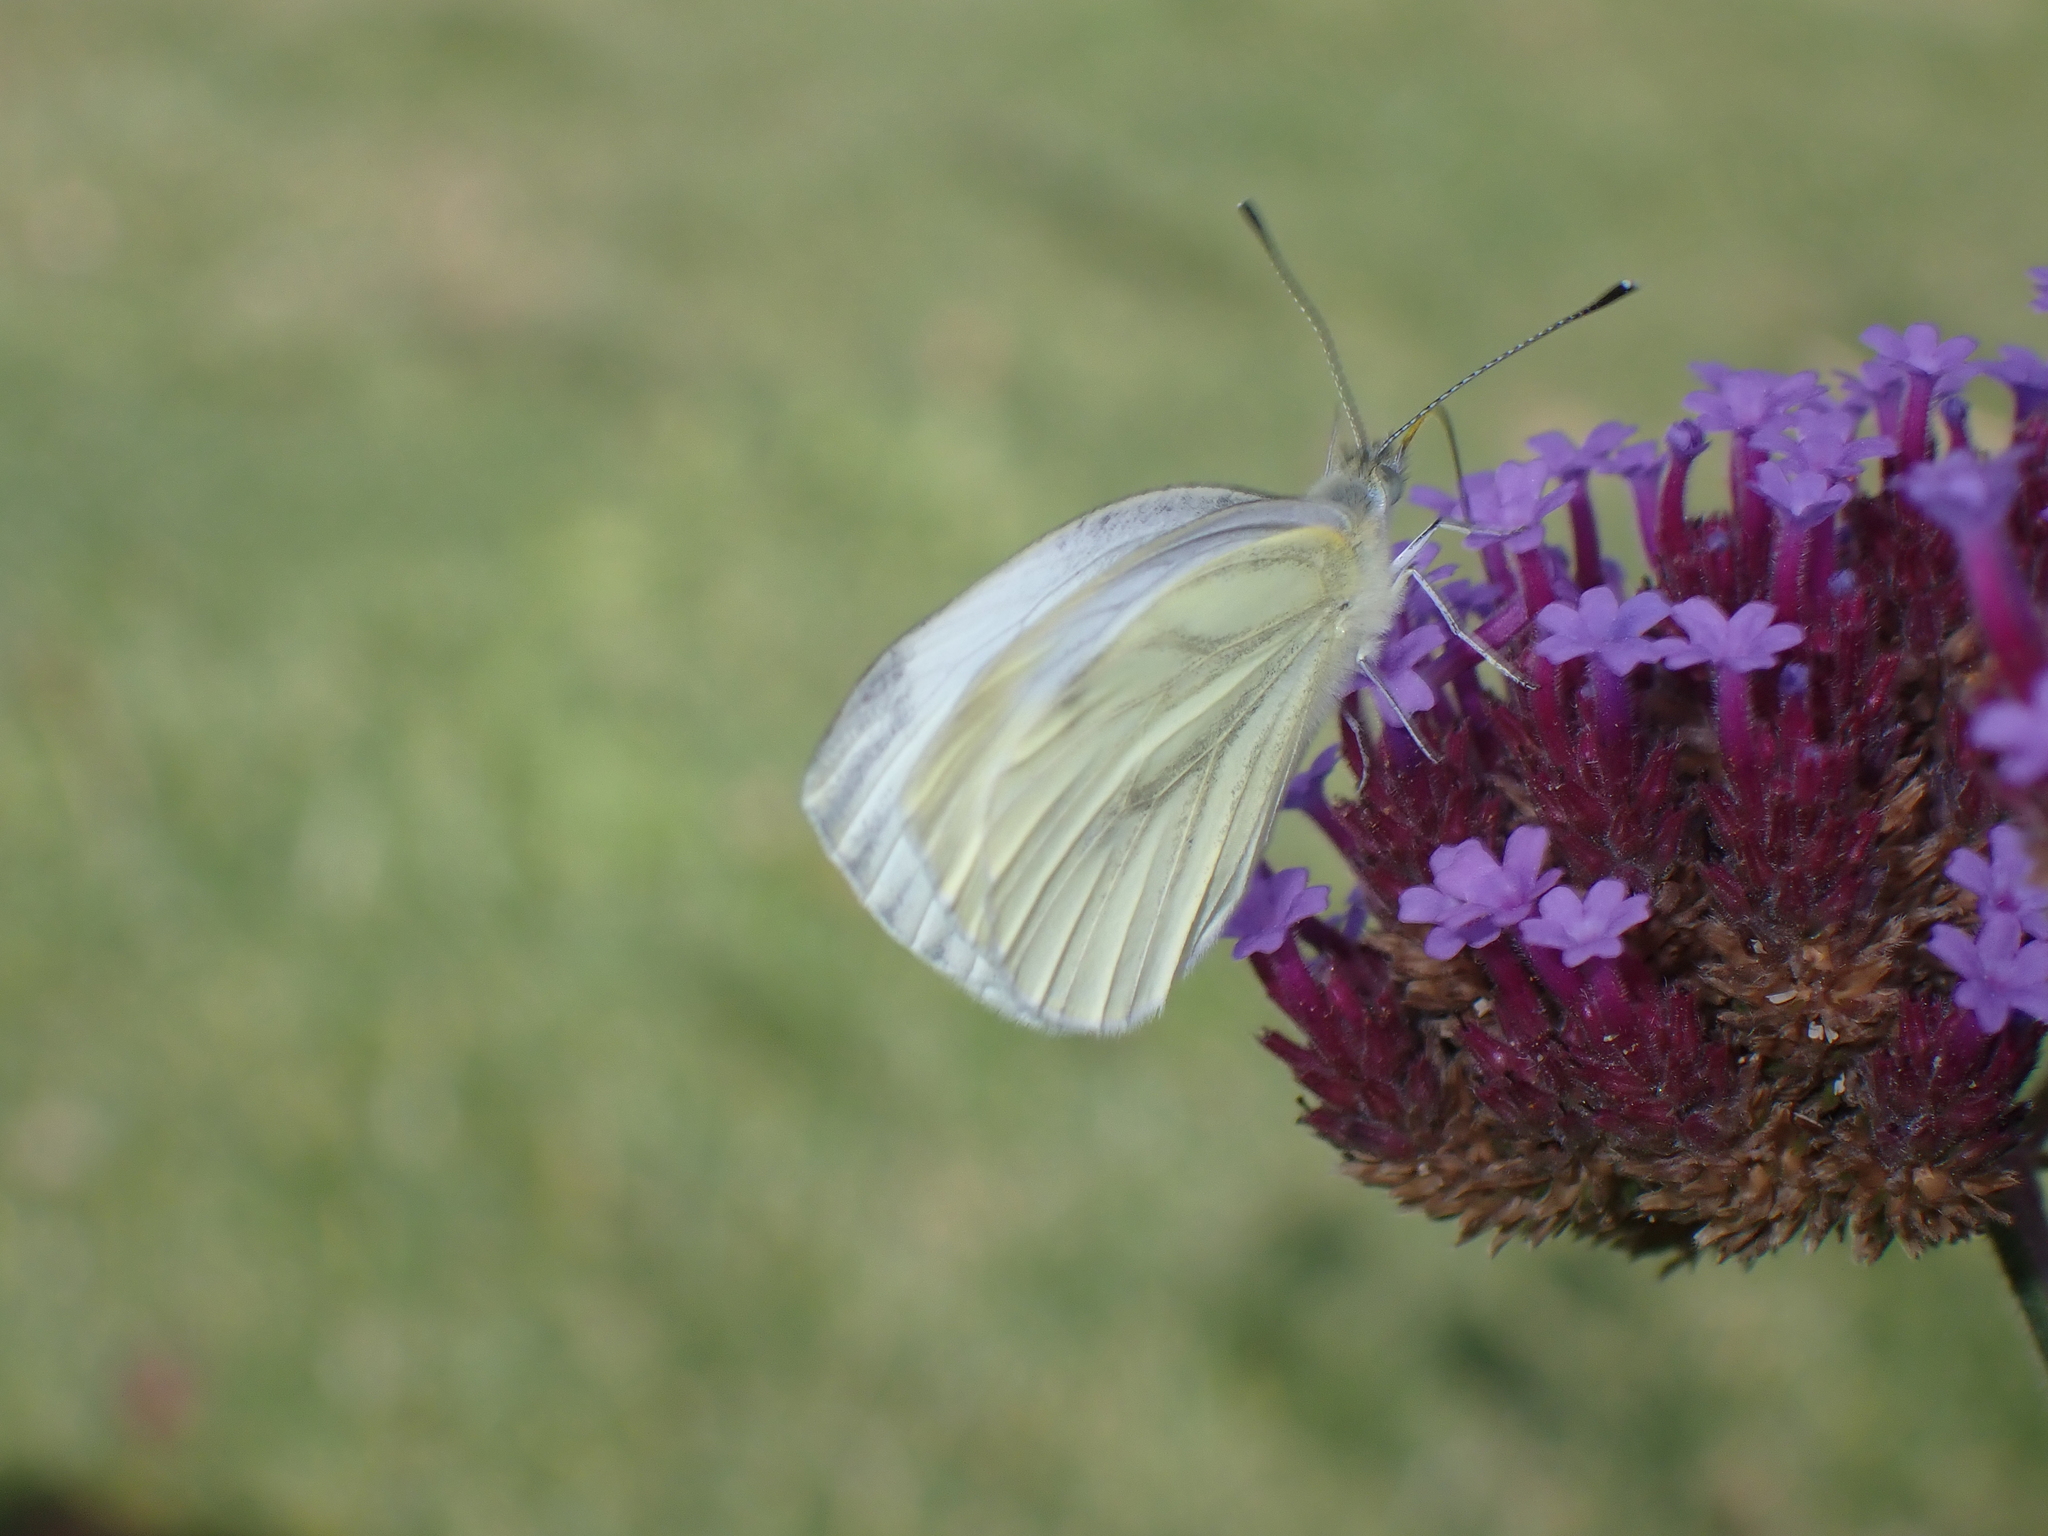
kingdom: Animalia
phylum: Arthropoda
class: Insecta
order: Lepidoptera
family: Pieridae
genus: Pieris
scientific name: Pieris napi
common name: Green-veined white
